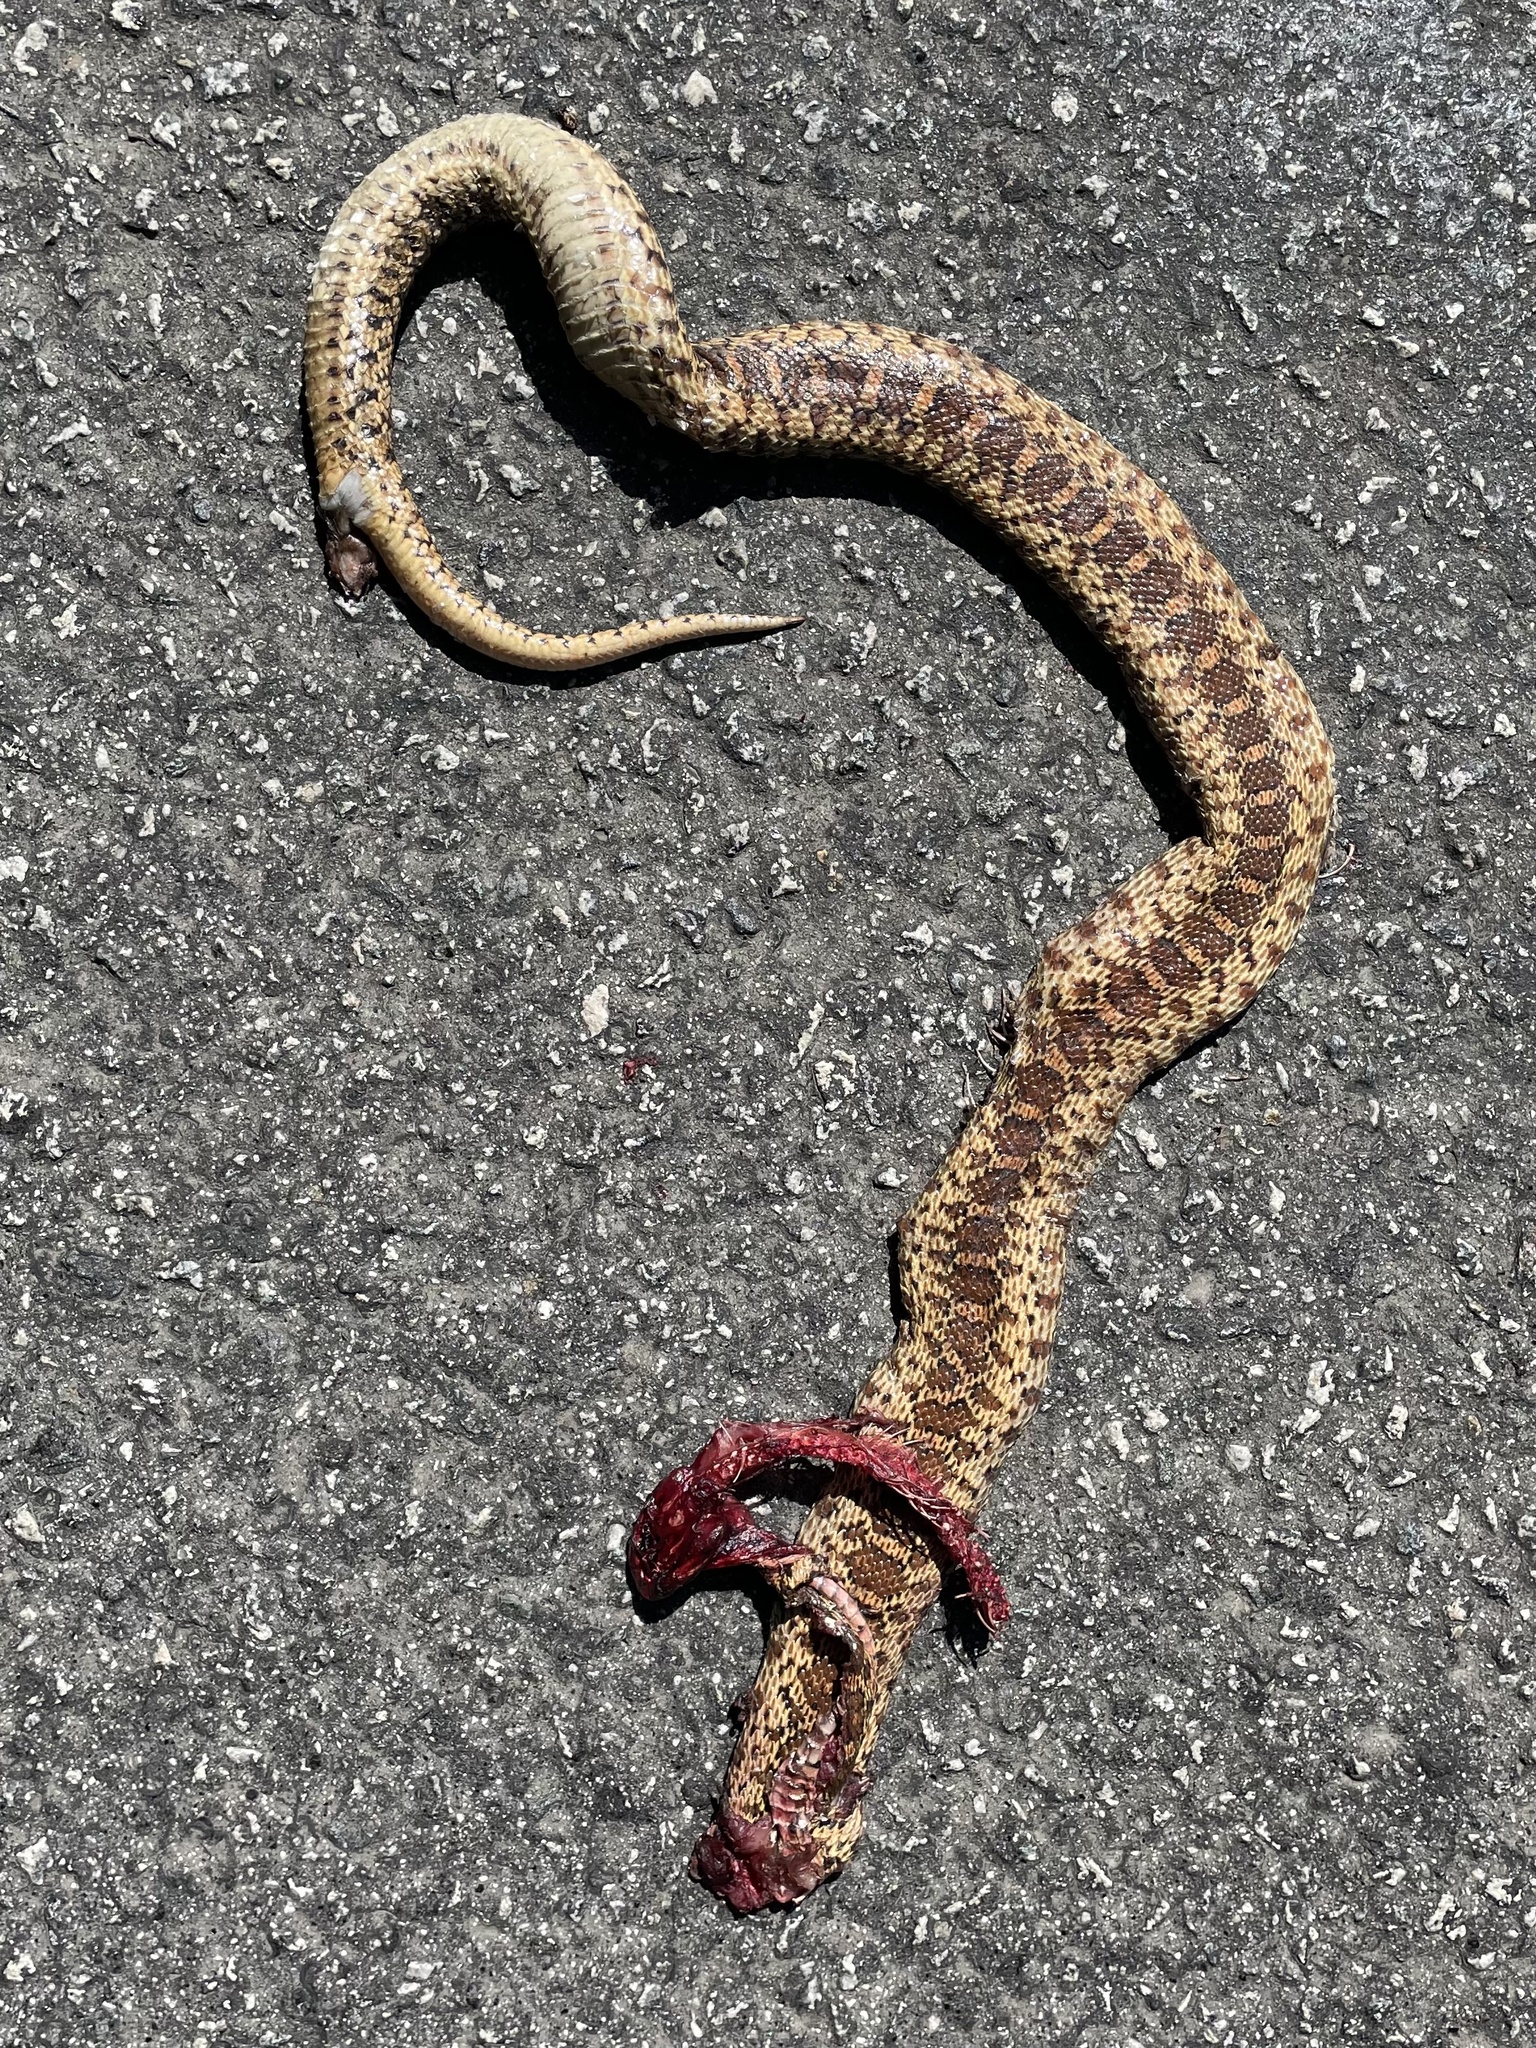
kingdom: Animalia
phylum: Chordata
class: Squamata
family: Colubridae
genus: Pituophis
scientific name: Pituophis catenifer
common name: Gopher snake
